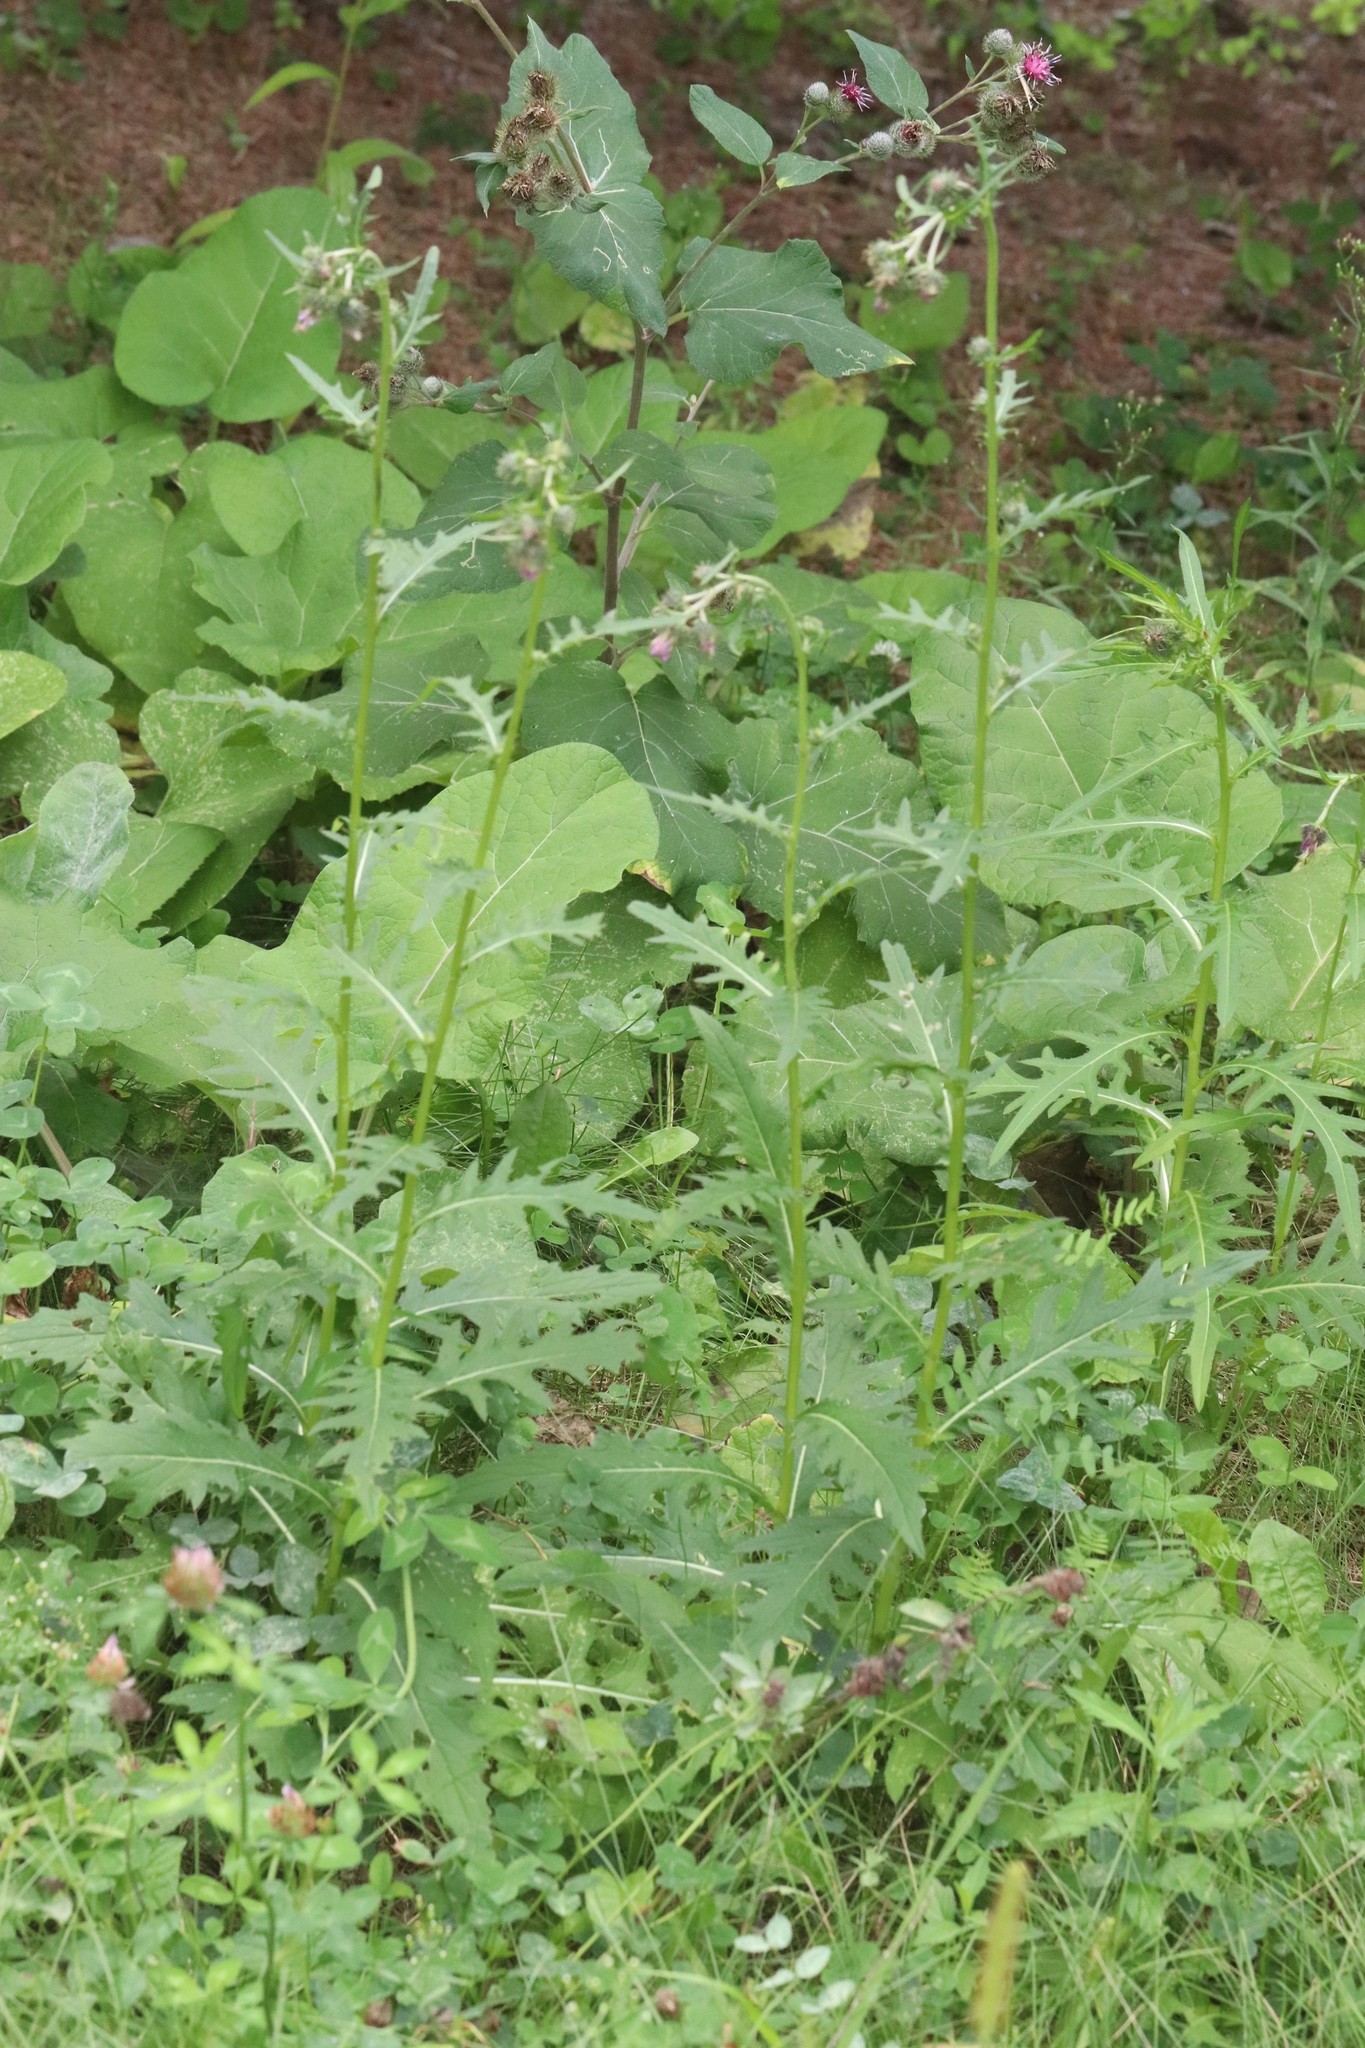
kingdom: Plantae
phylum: Tracheophyta
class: Magnoliopsida
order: Asterales
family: Asteraceae
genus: Cirsium
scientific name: Cirsium pendulum
